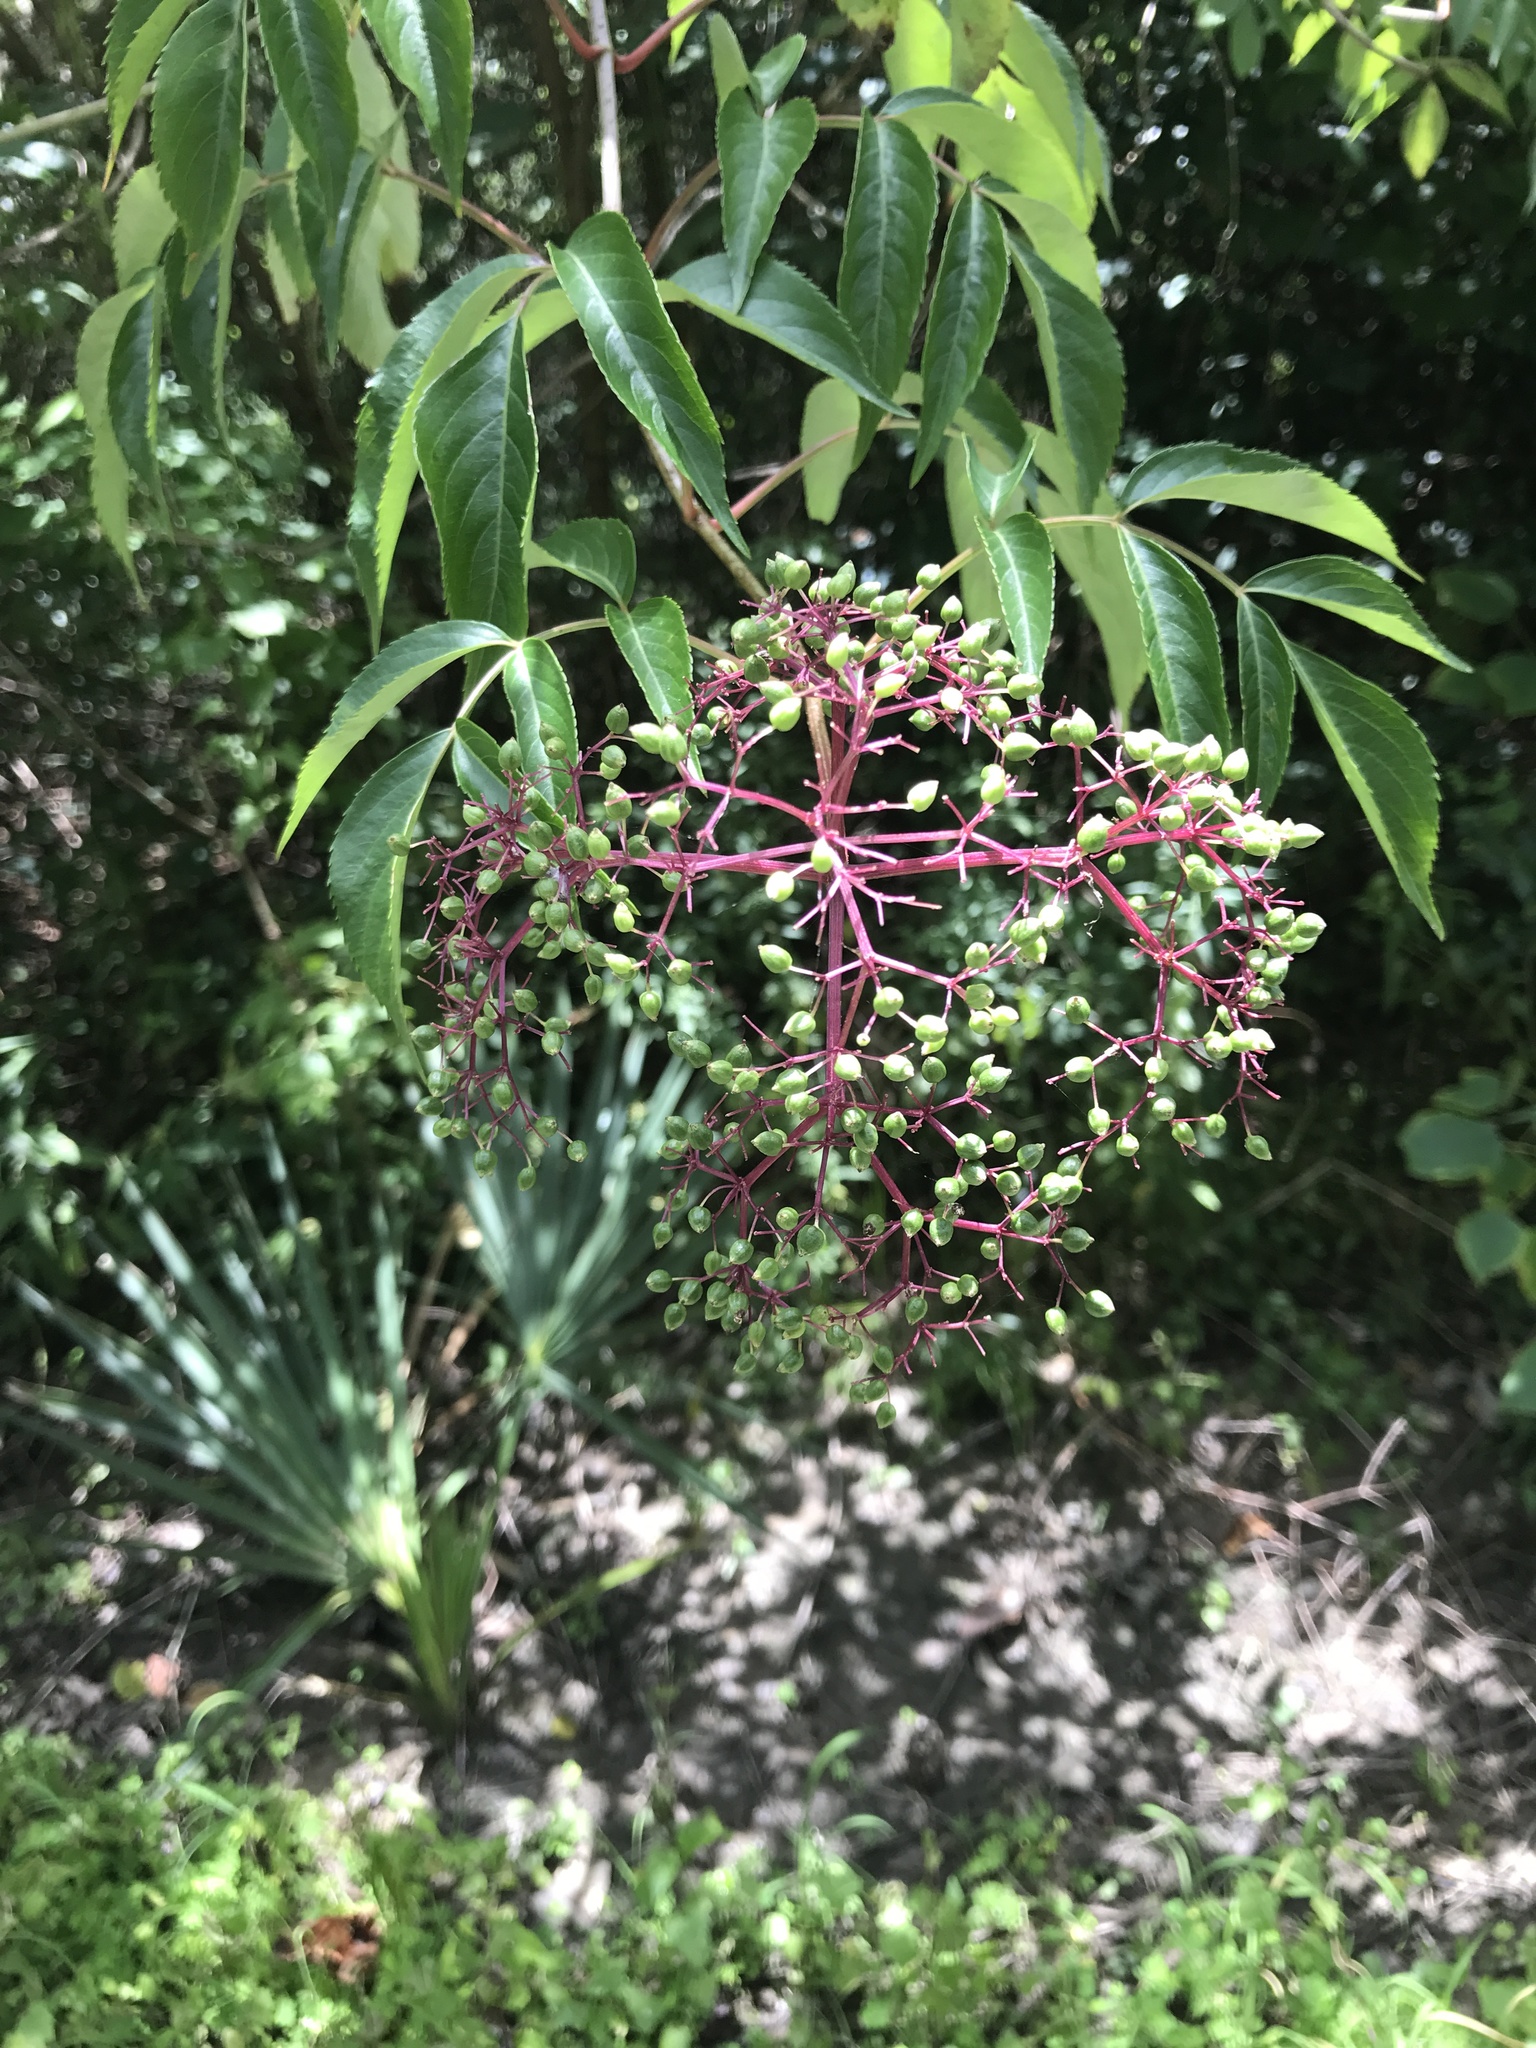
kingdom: Plantae
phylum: Tracheophyta
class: Magnoliopsida
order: Dipsacales
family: Viburnaceae
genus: Sambucus
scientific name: Sambucus canadensis
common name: American elder
